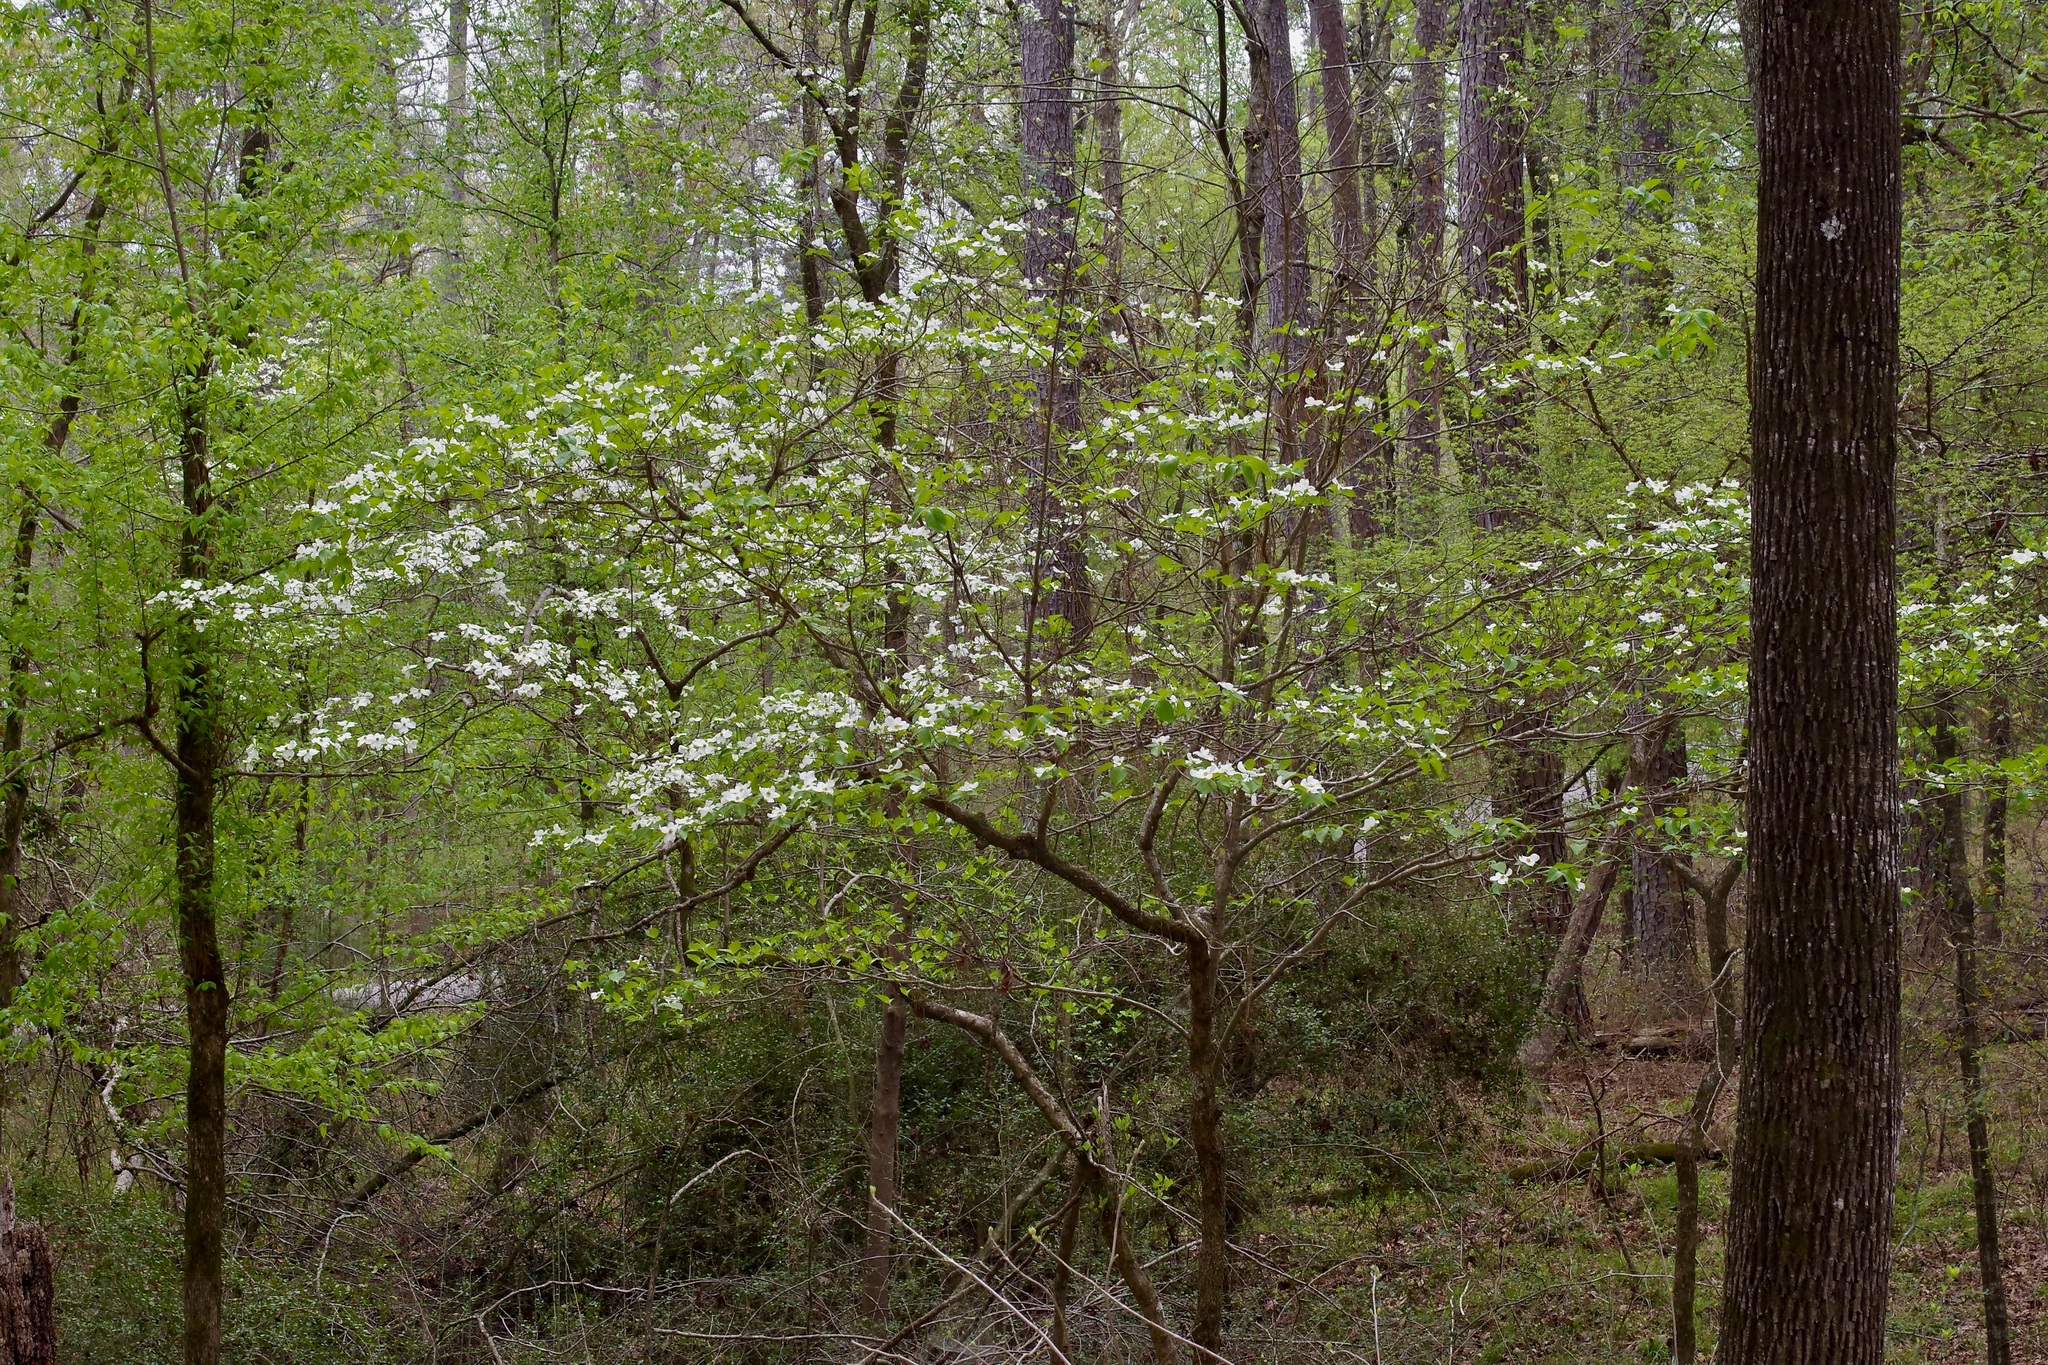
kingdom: Plantae
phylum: Tracheophyta
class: Magnoliopsida
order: Cornales
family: Cornaceae
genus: Cornus
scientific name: Cornus florida
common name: Flowering dogwood
